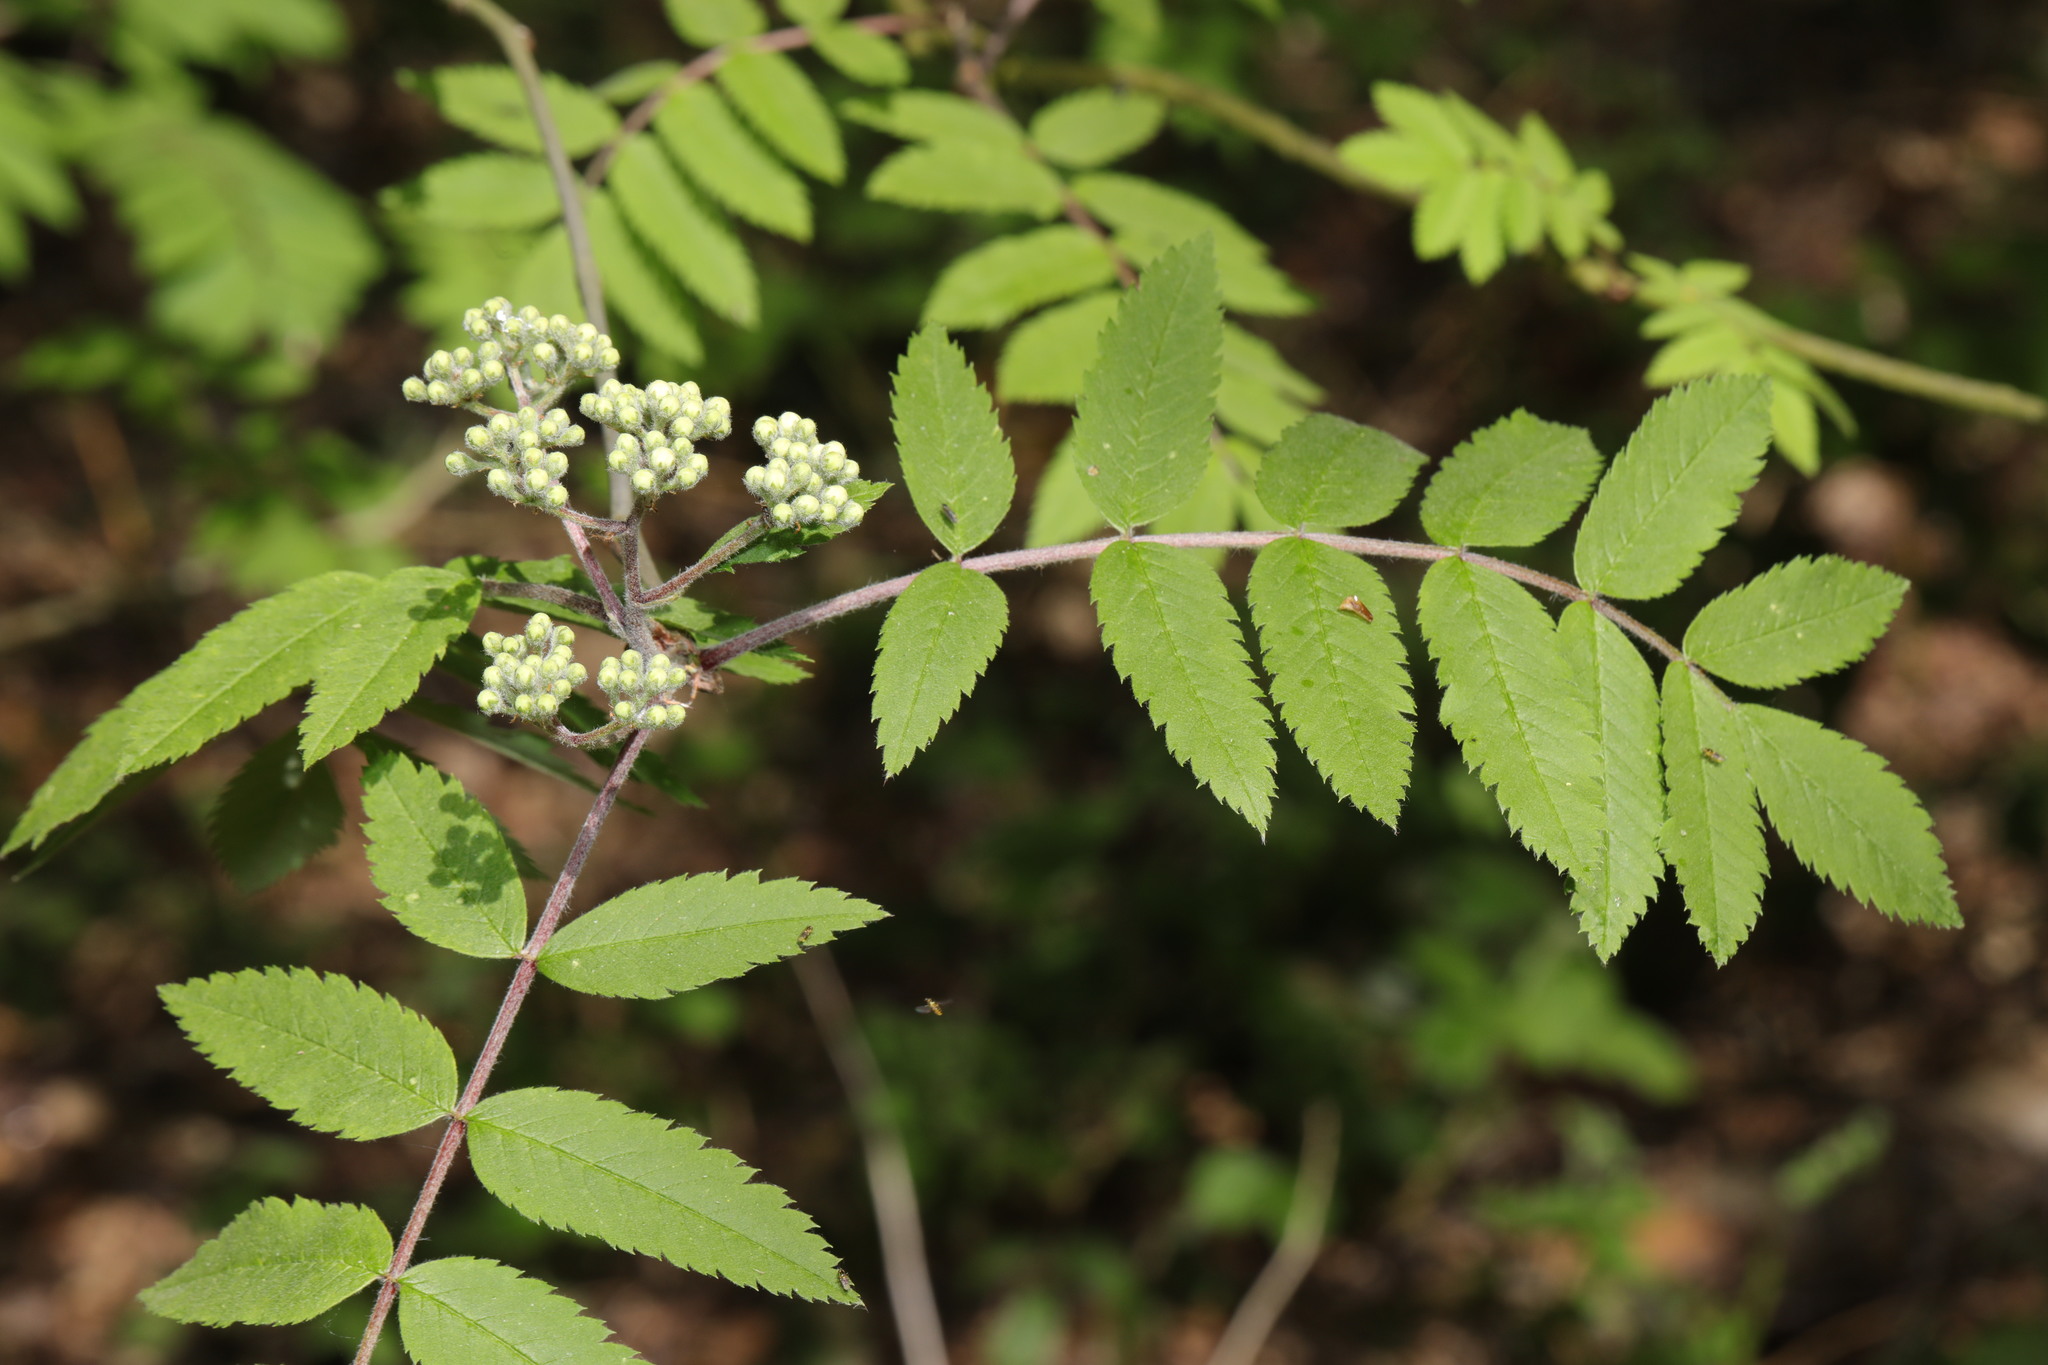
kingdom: Plantae
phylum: Tracheophyta
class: Magnoliopsida
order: Rosales
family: Rosaceae
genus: Sorbus
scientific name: Sorbus aucuparia
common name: Rowan
